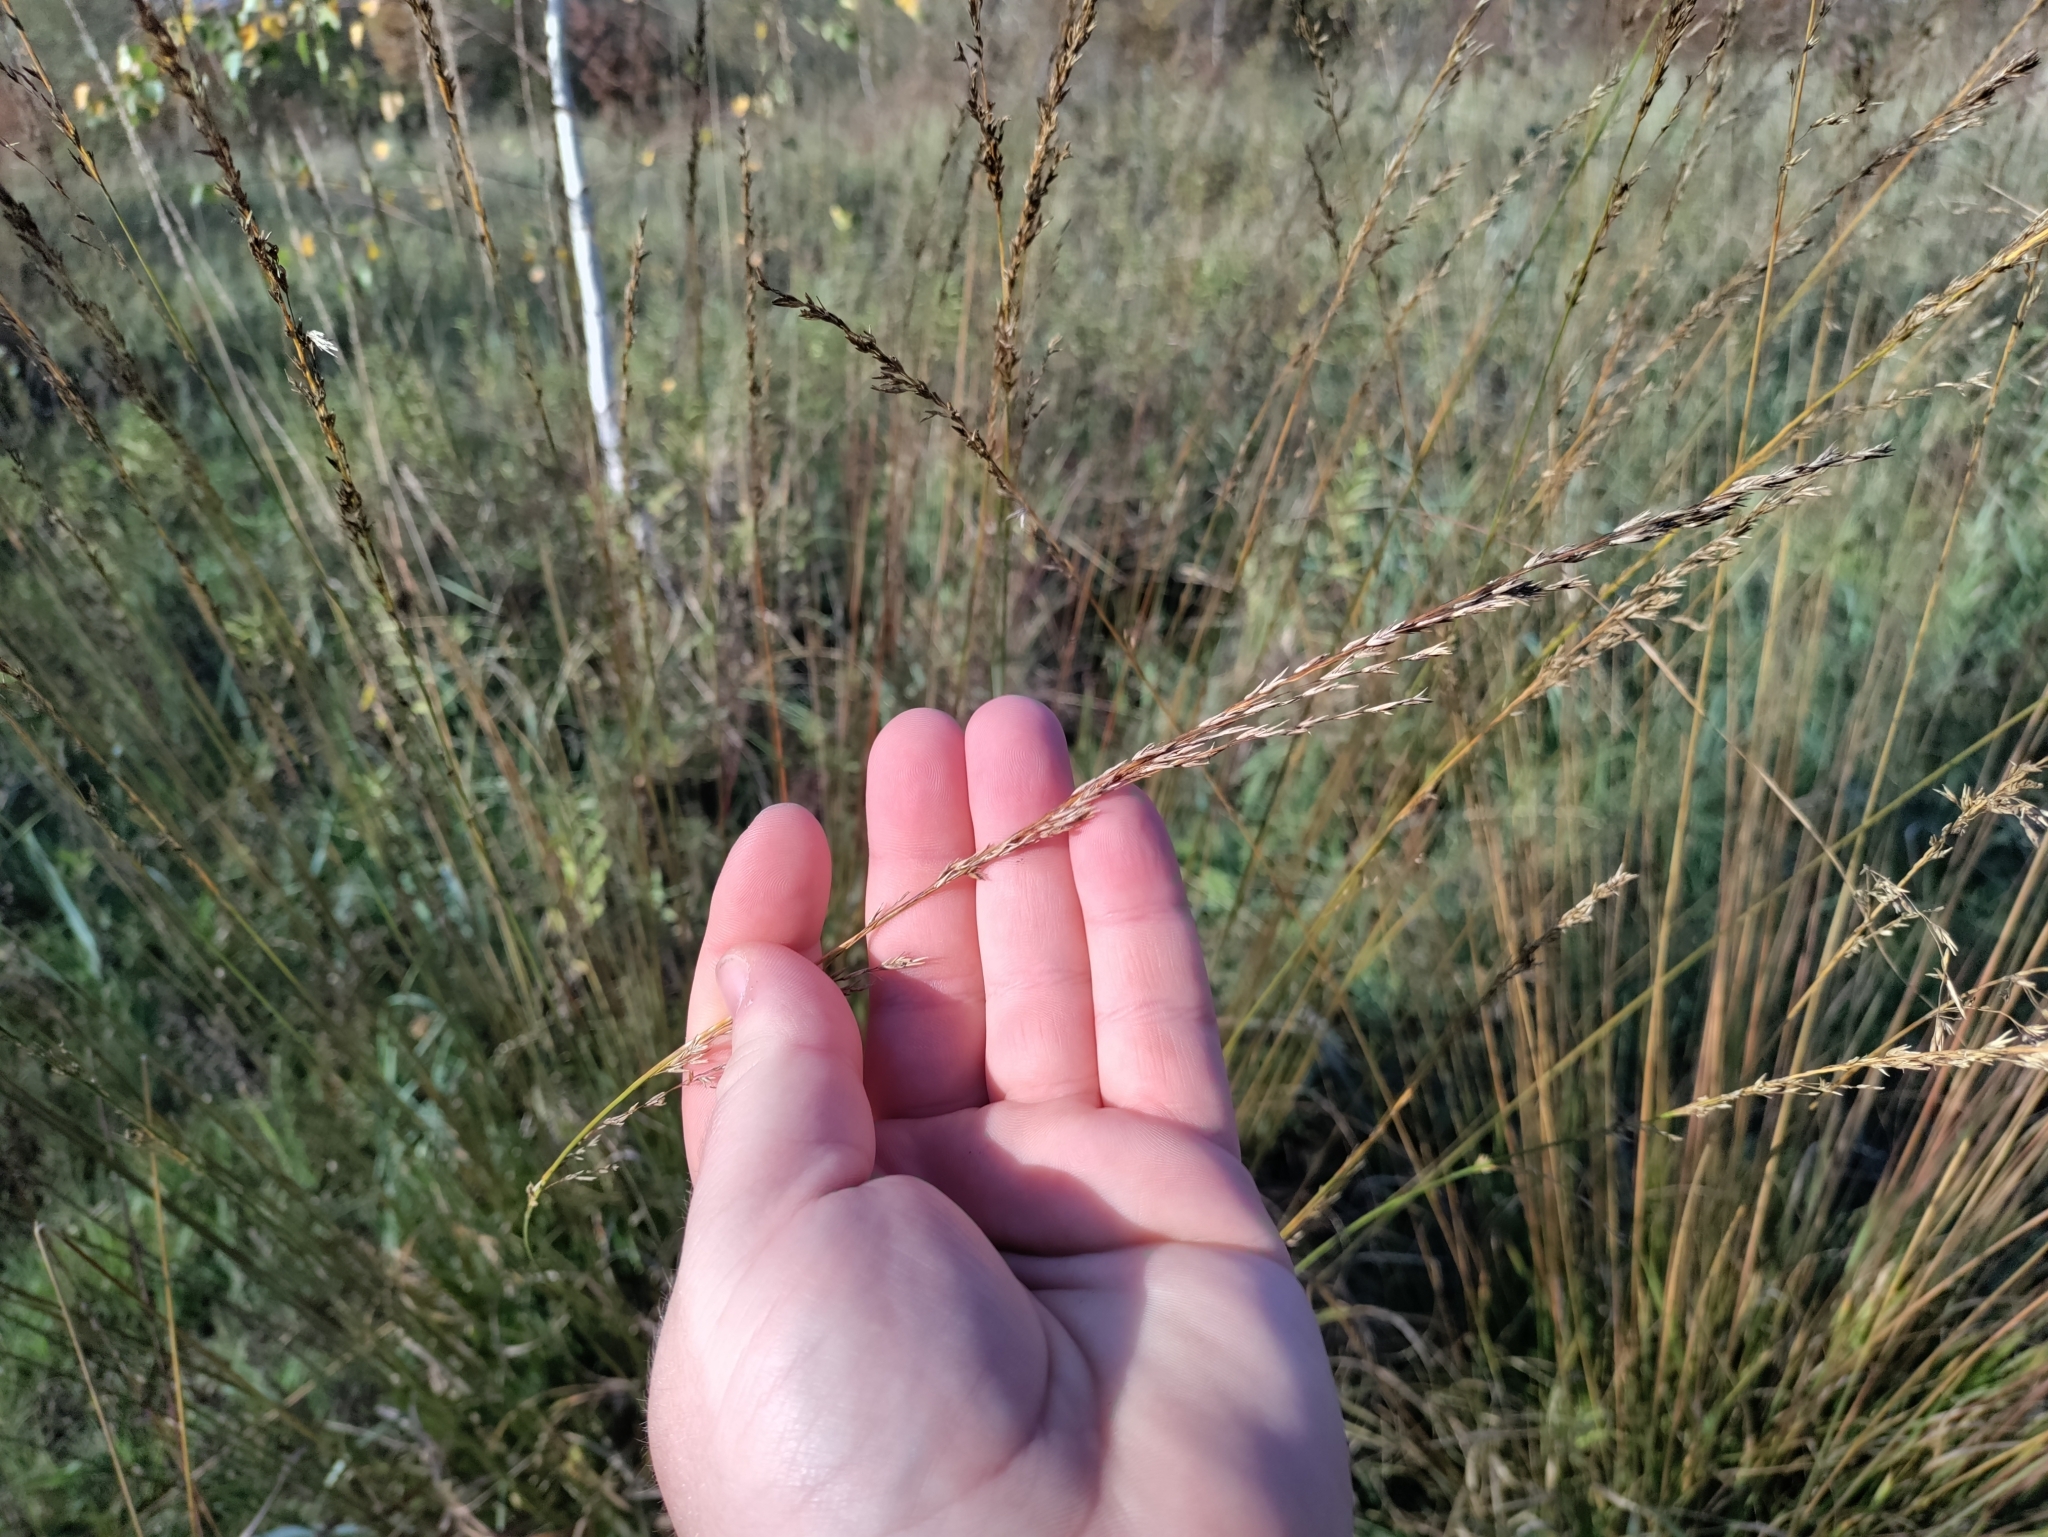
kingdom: Plantae
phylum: Tracheophyta
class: Liliopsida
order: Poales
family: Poaceae
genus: Molinia
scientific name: Molinia caerulea
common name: Purple moor-grass
